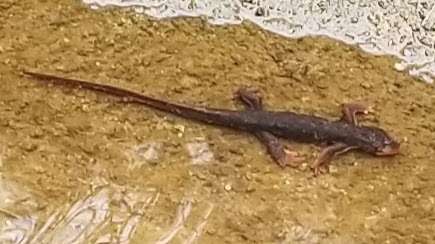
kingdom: Animalia
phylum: Chordata
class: Amphibia
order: Caudata
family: Salamandridae
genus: Taricha
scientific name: Taricha sierrae
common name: Sierra newt
